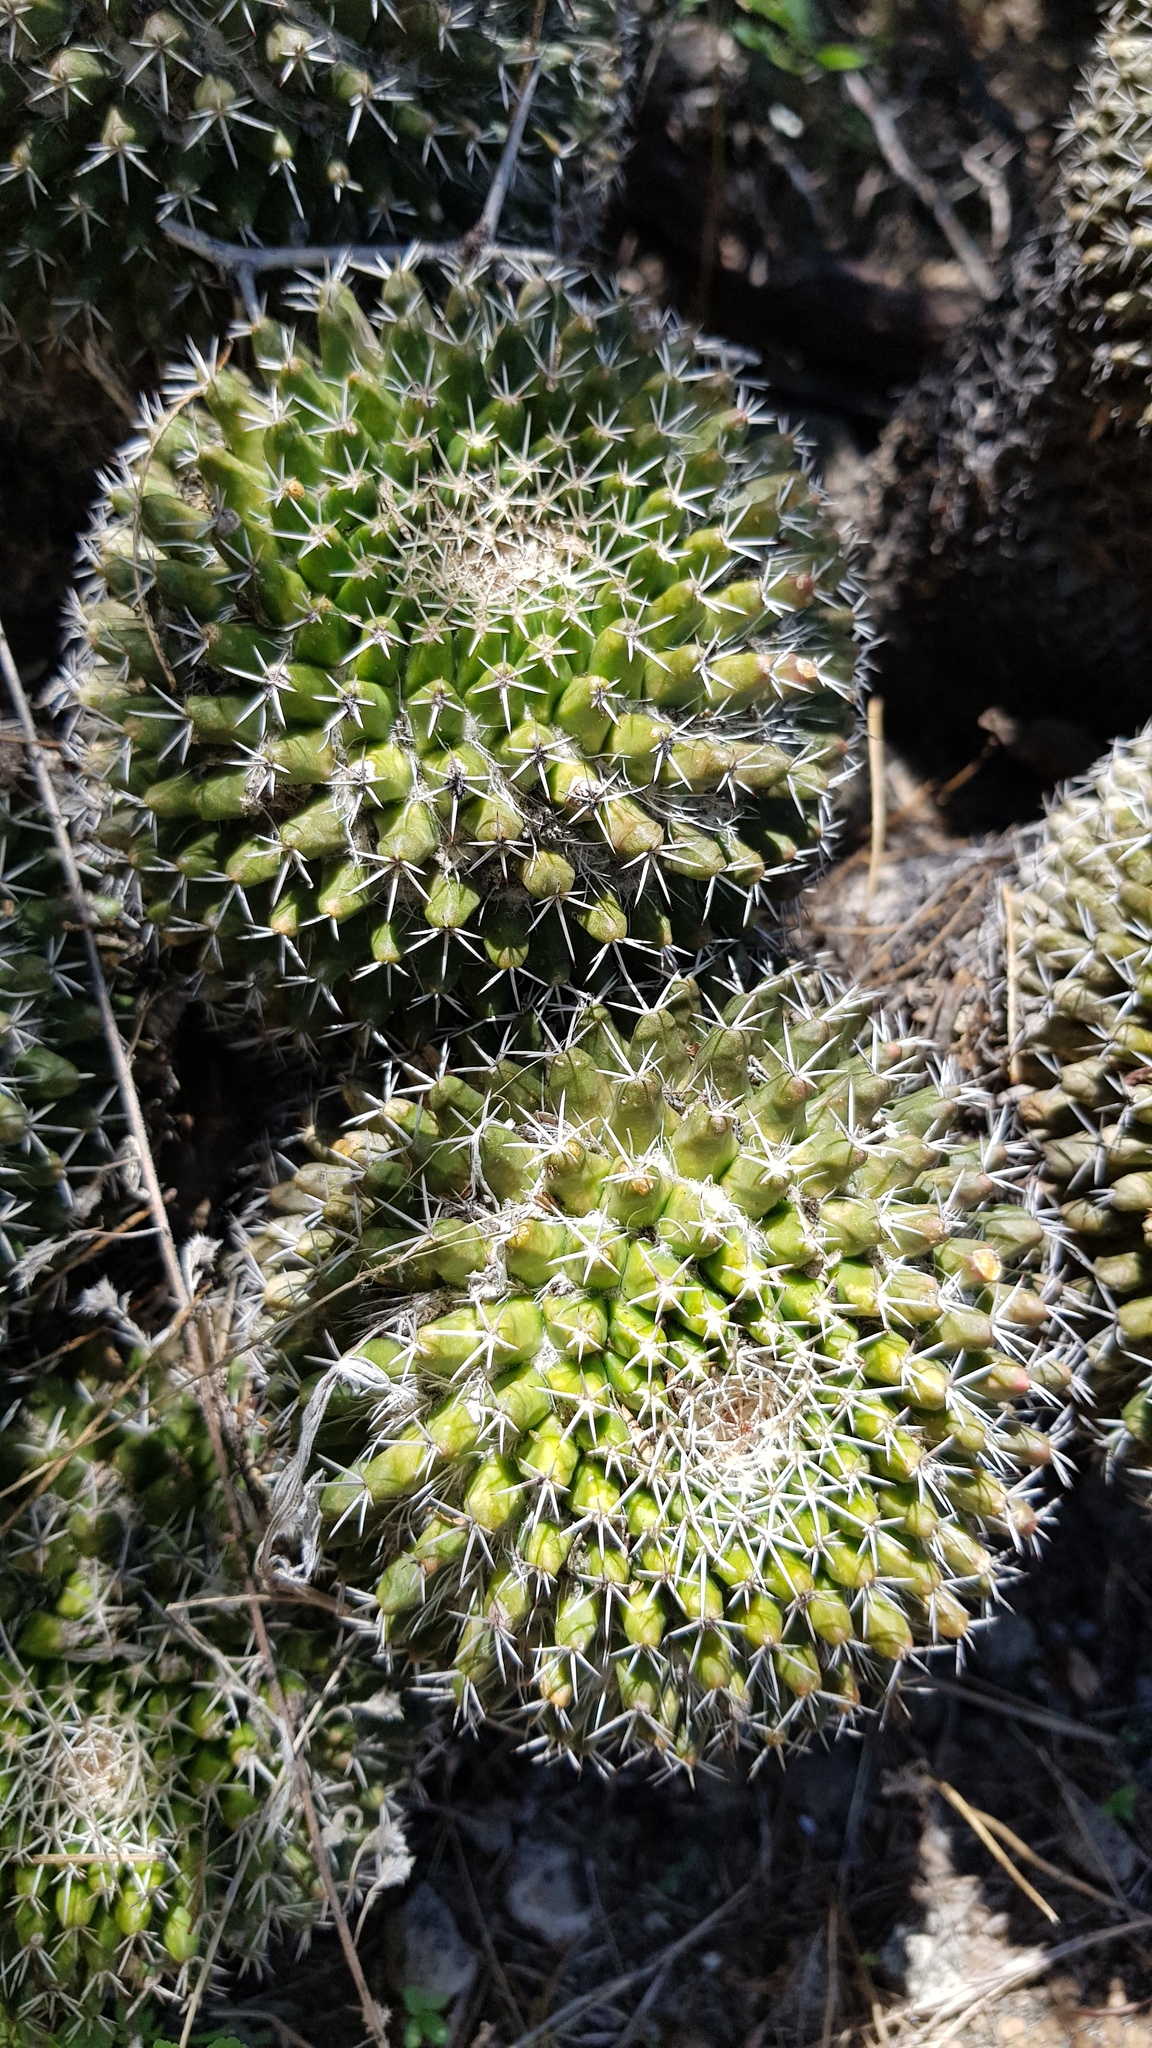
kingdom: Plantae
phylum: Tracheophyta
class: Magnoliopsida
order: Caryophyllales
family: Cactaceae
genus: Mammillaria
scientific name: Mammillaria karwinskiana
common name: Royal cross
